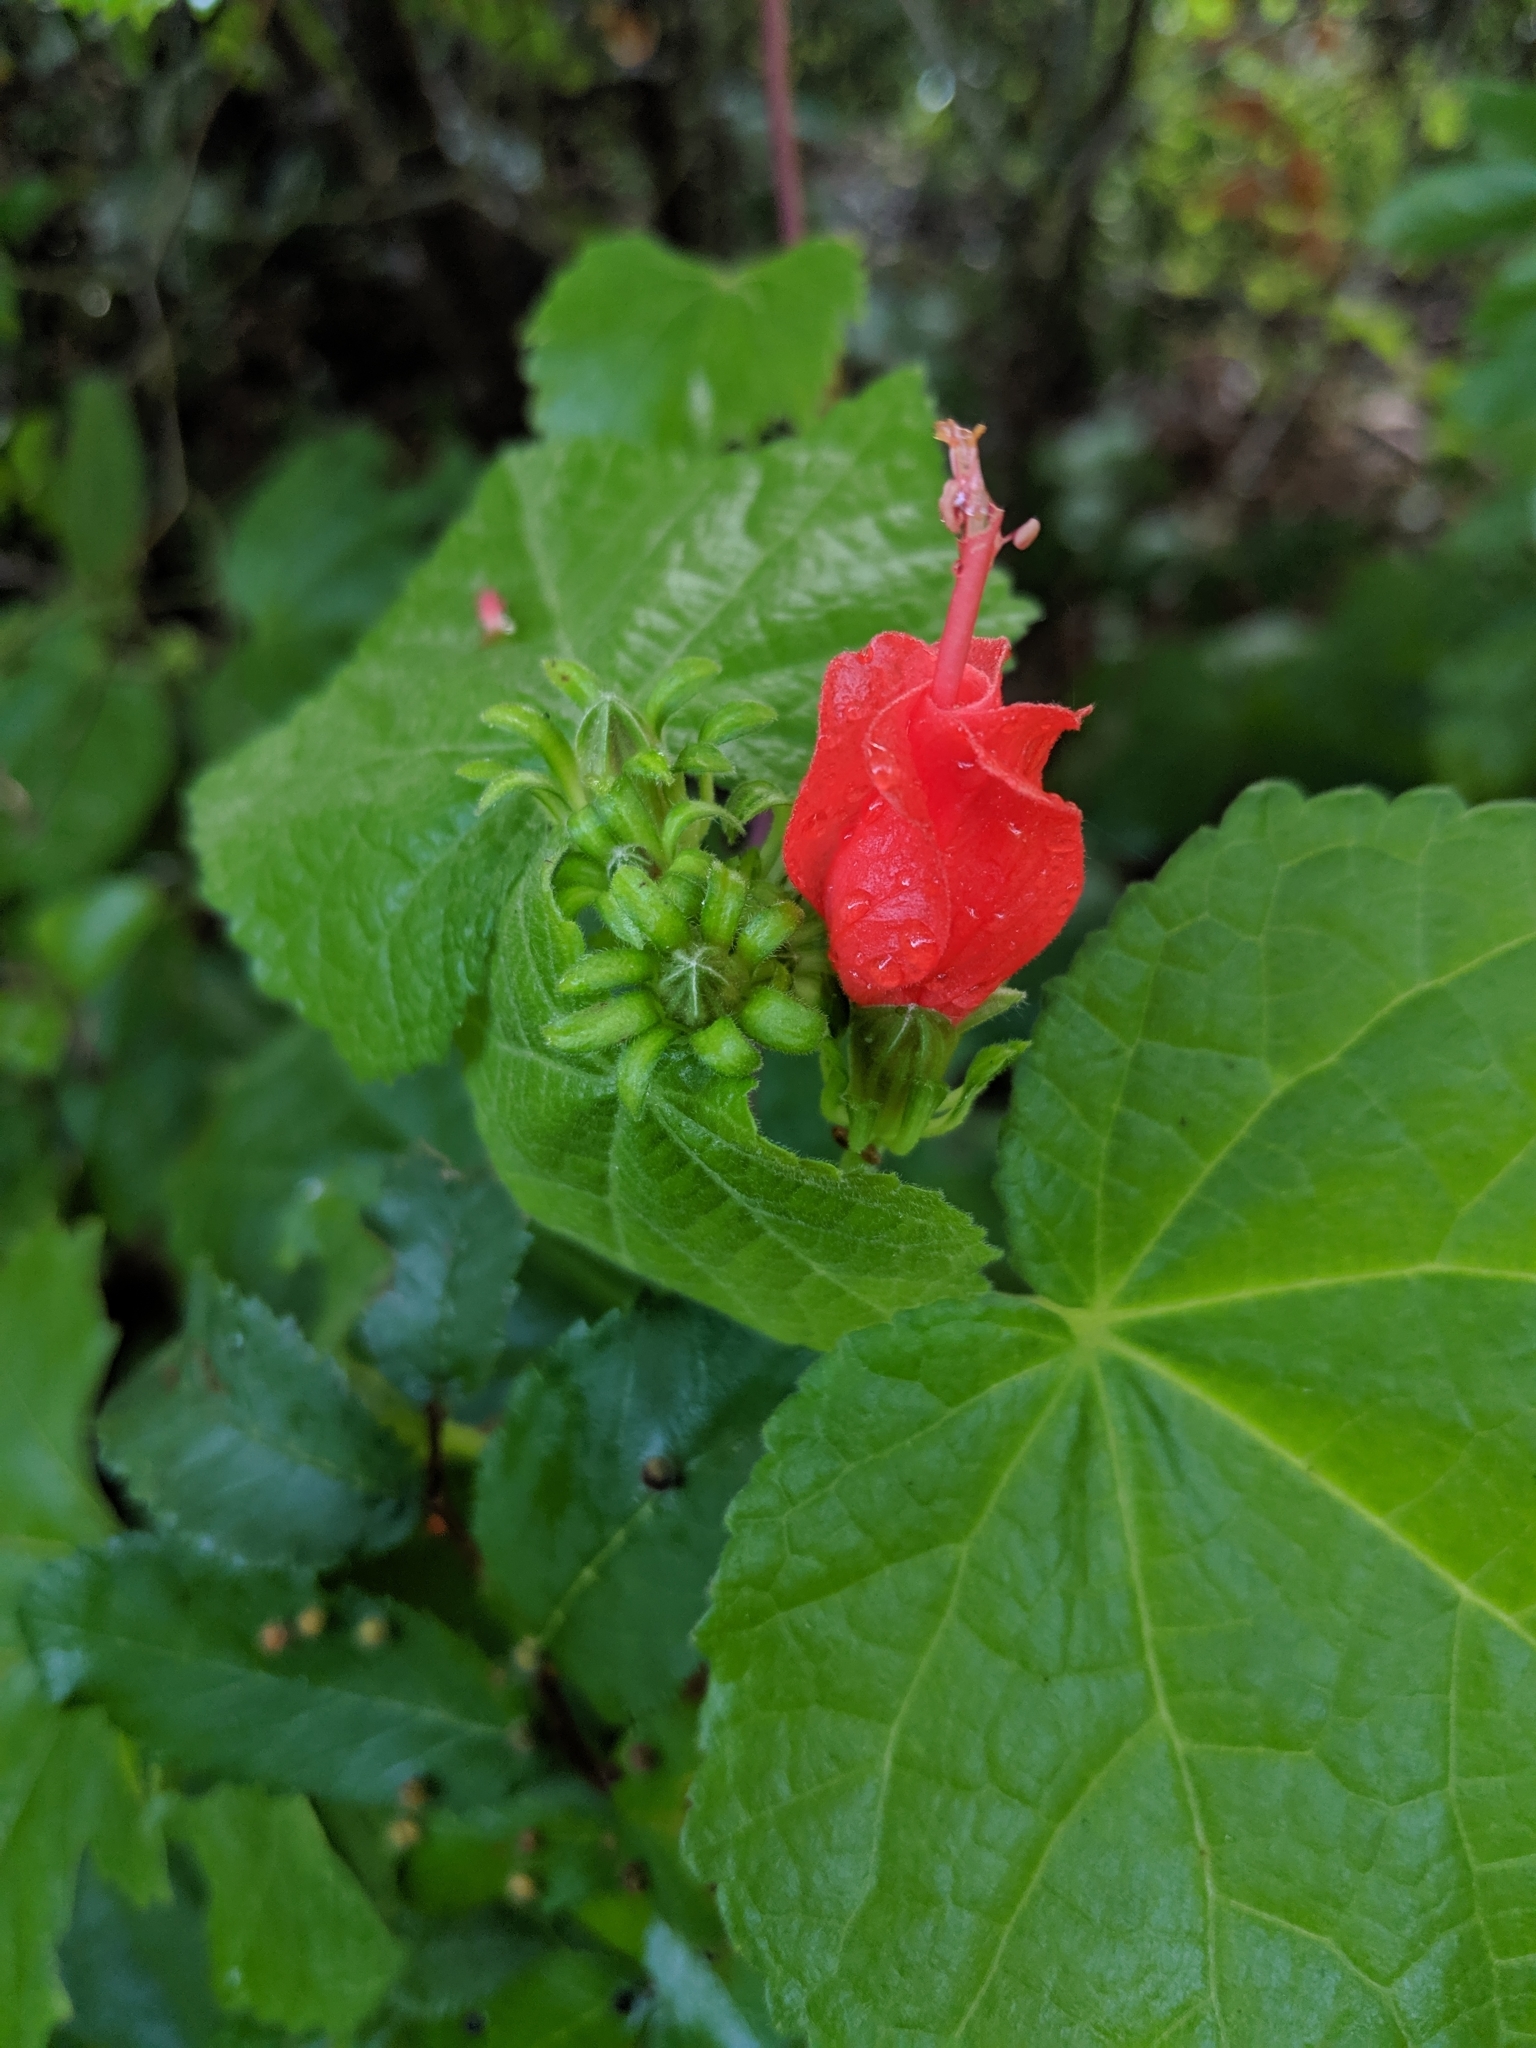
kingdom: Plantae
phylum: Tracheophyta
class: Magnoliopsida
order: Malvales
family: Malvaceae
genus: Malvaviscus
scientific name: Malvaviscus arboreus
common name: Wax mallow
